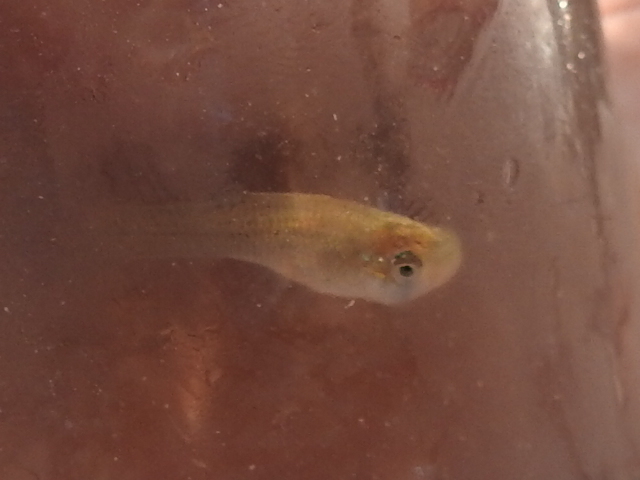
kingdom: Animalia
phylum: Chordata
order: Cyprinodontiformes
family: Poeciliidae
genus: Gambusia
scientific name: Gambusia affinis
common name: Mosquitofish
